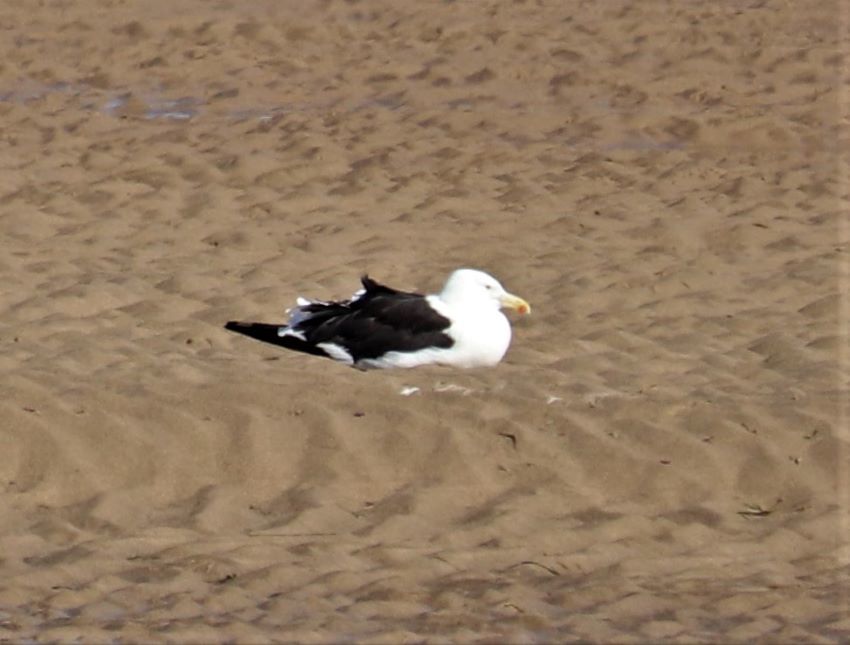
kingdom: Animalia
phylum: Chordata
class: Aves
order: Charadriiformes
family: Laridae
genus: Larus
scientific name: Larus dominicanus
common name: Kelp gull
